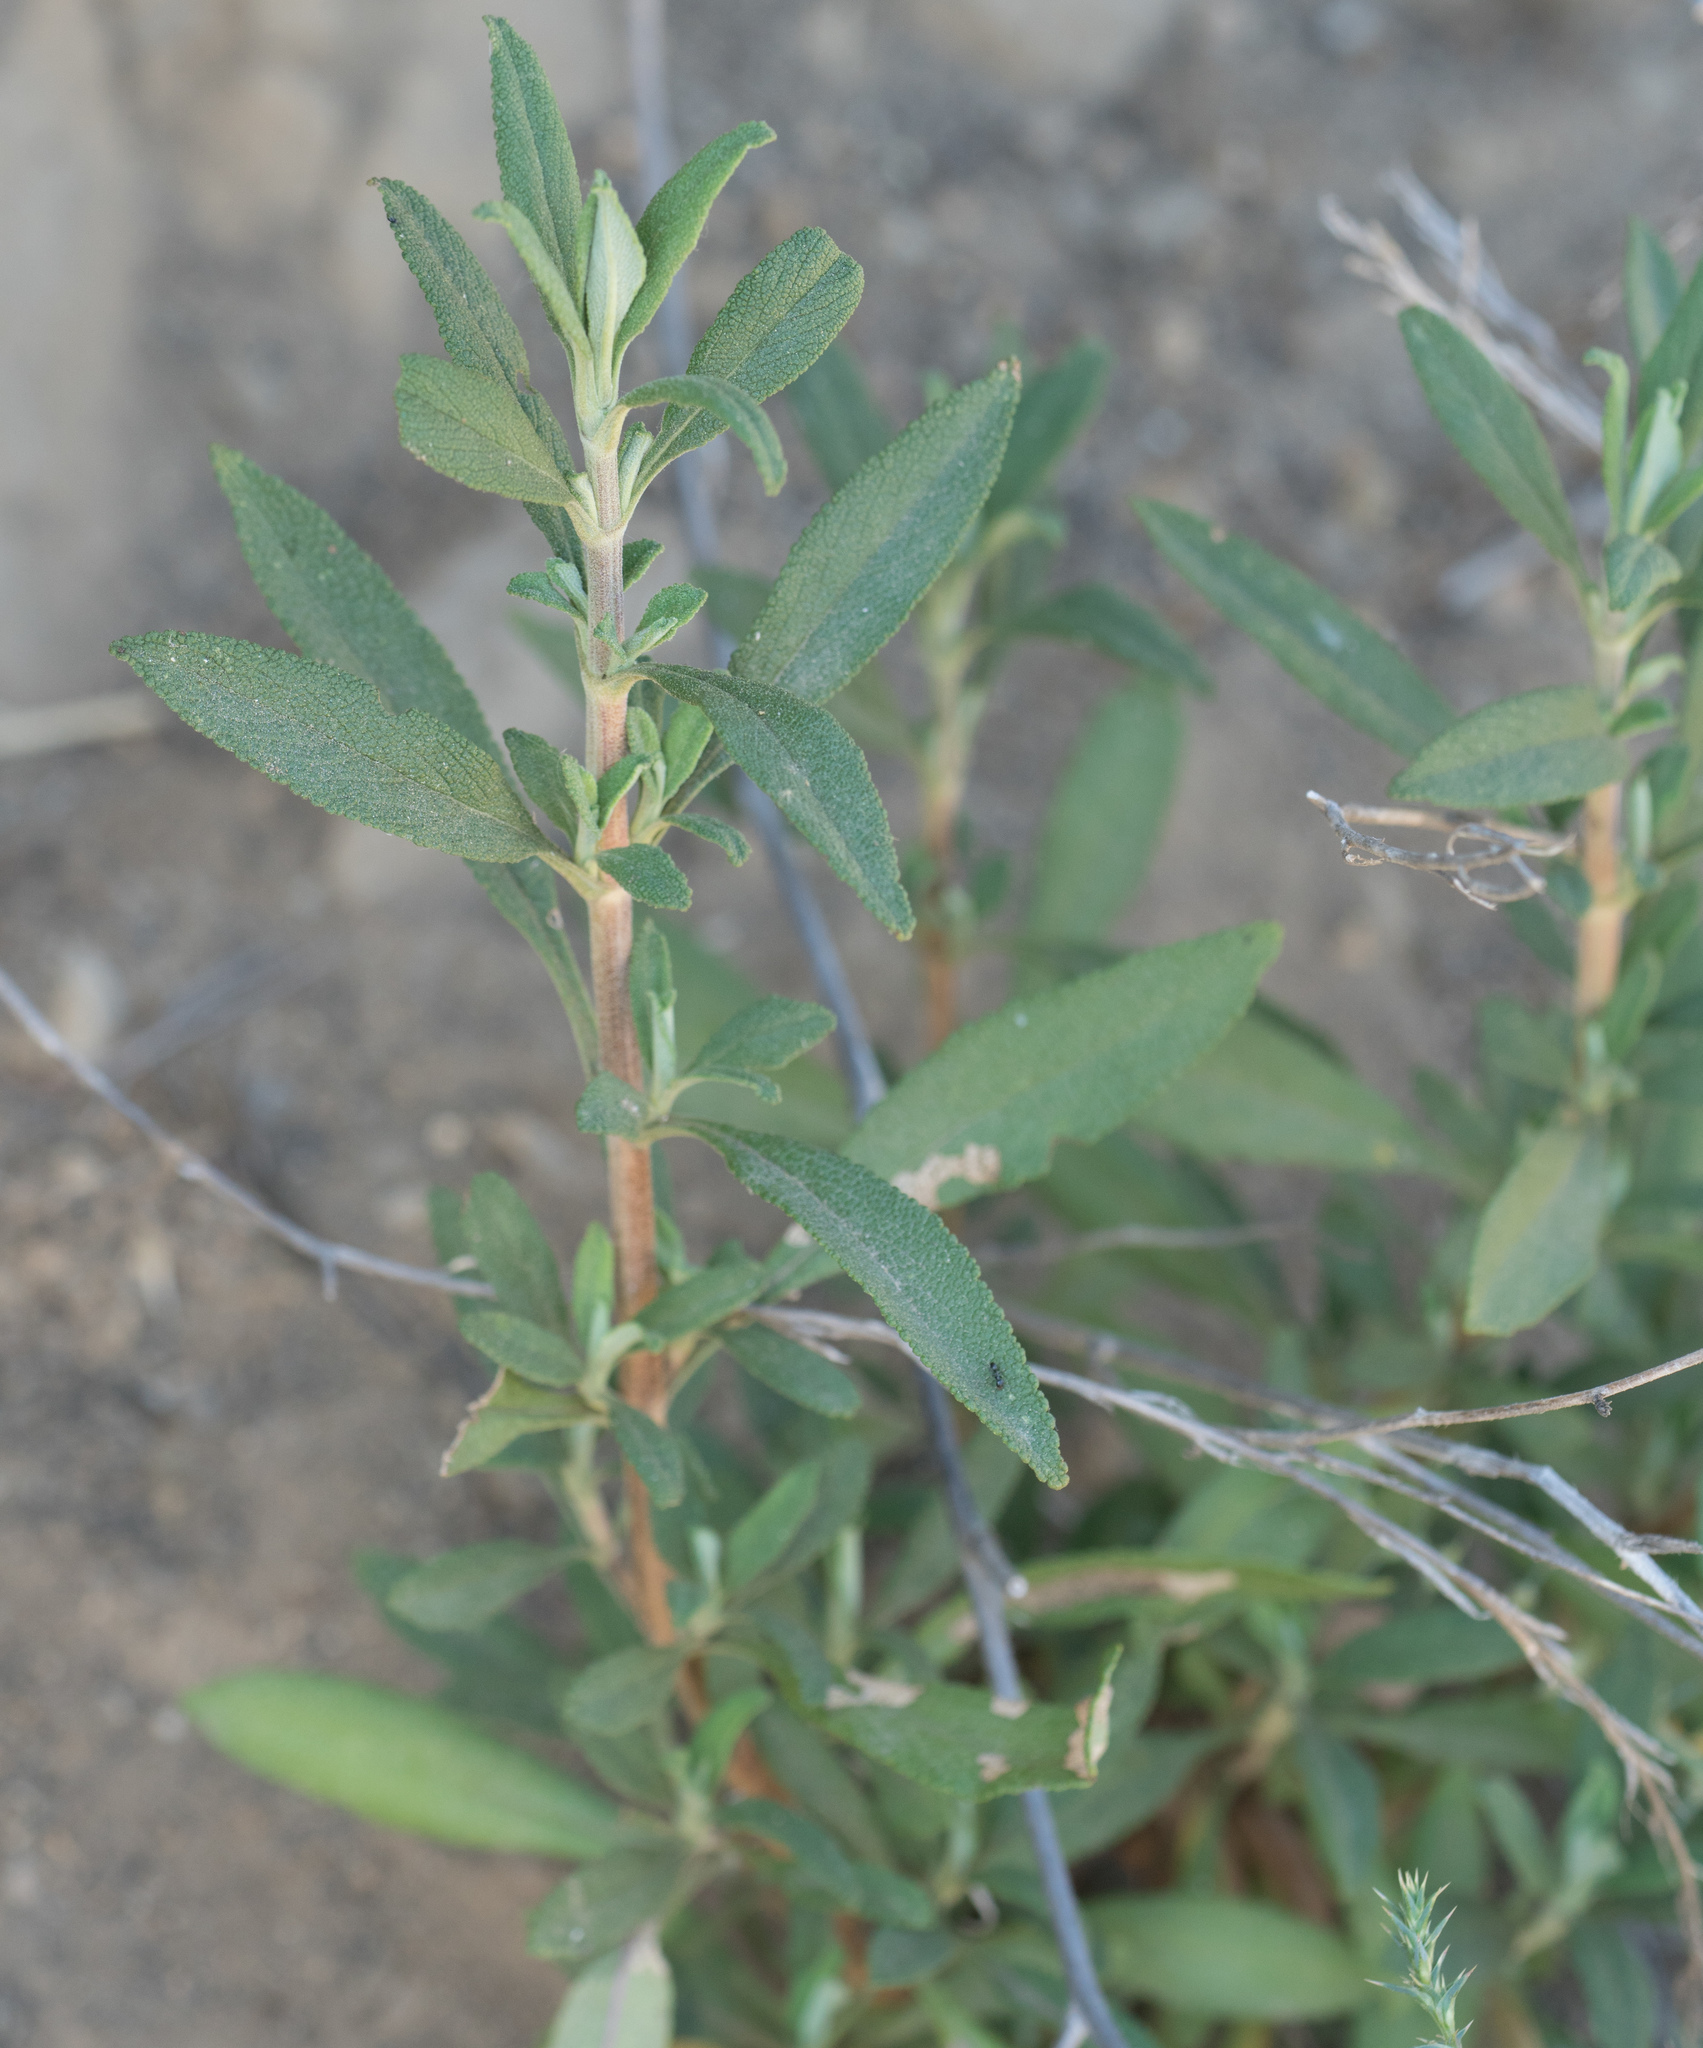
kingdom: Plantae
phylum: Tracheophyta
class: Magnoliopsida
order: Lamiales
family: Lamiaceae
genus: Salvia
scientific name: Salvia mellifera
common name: Black sage
